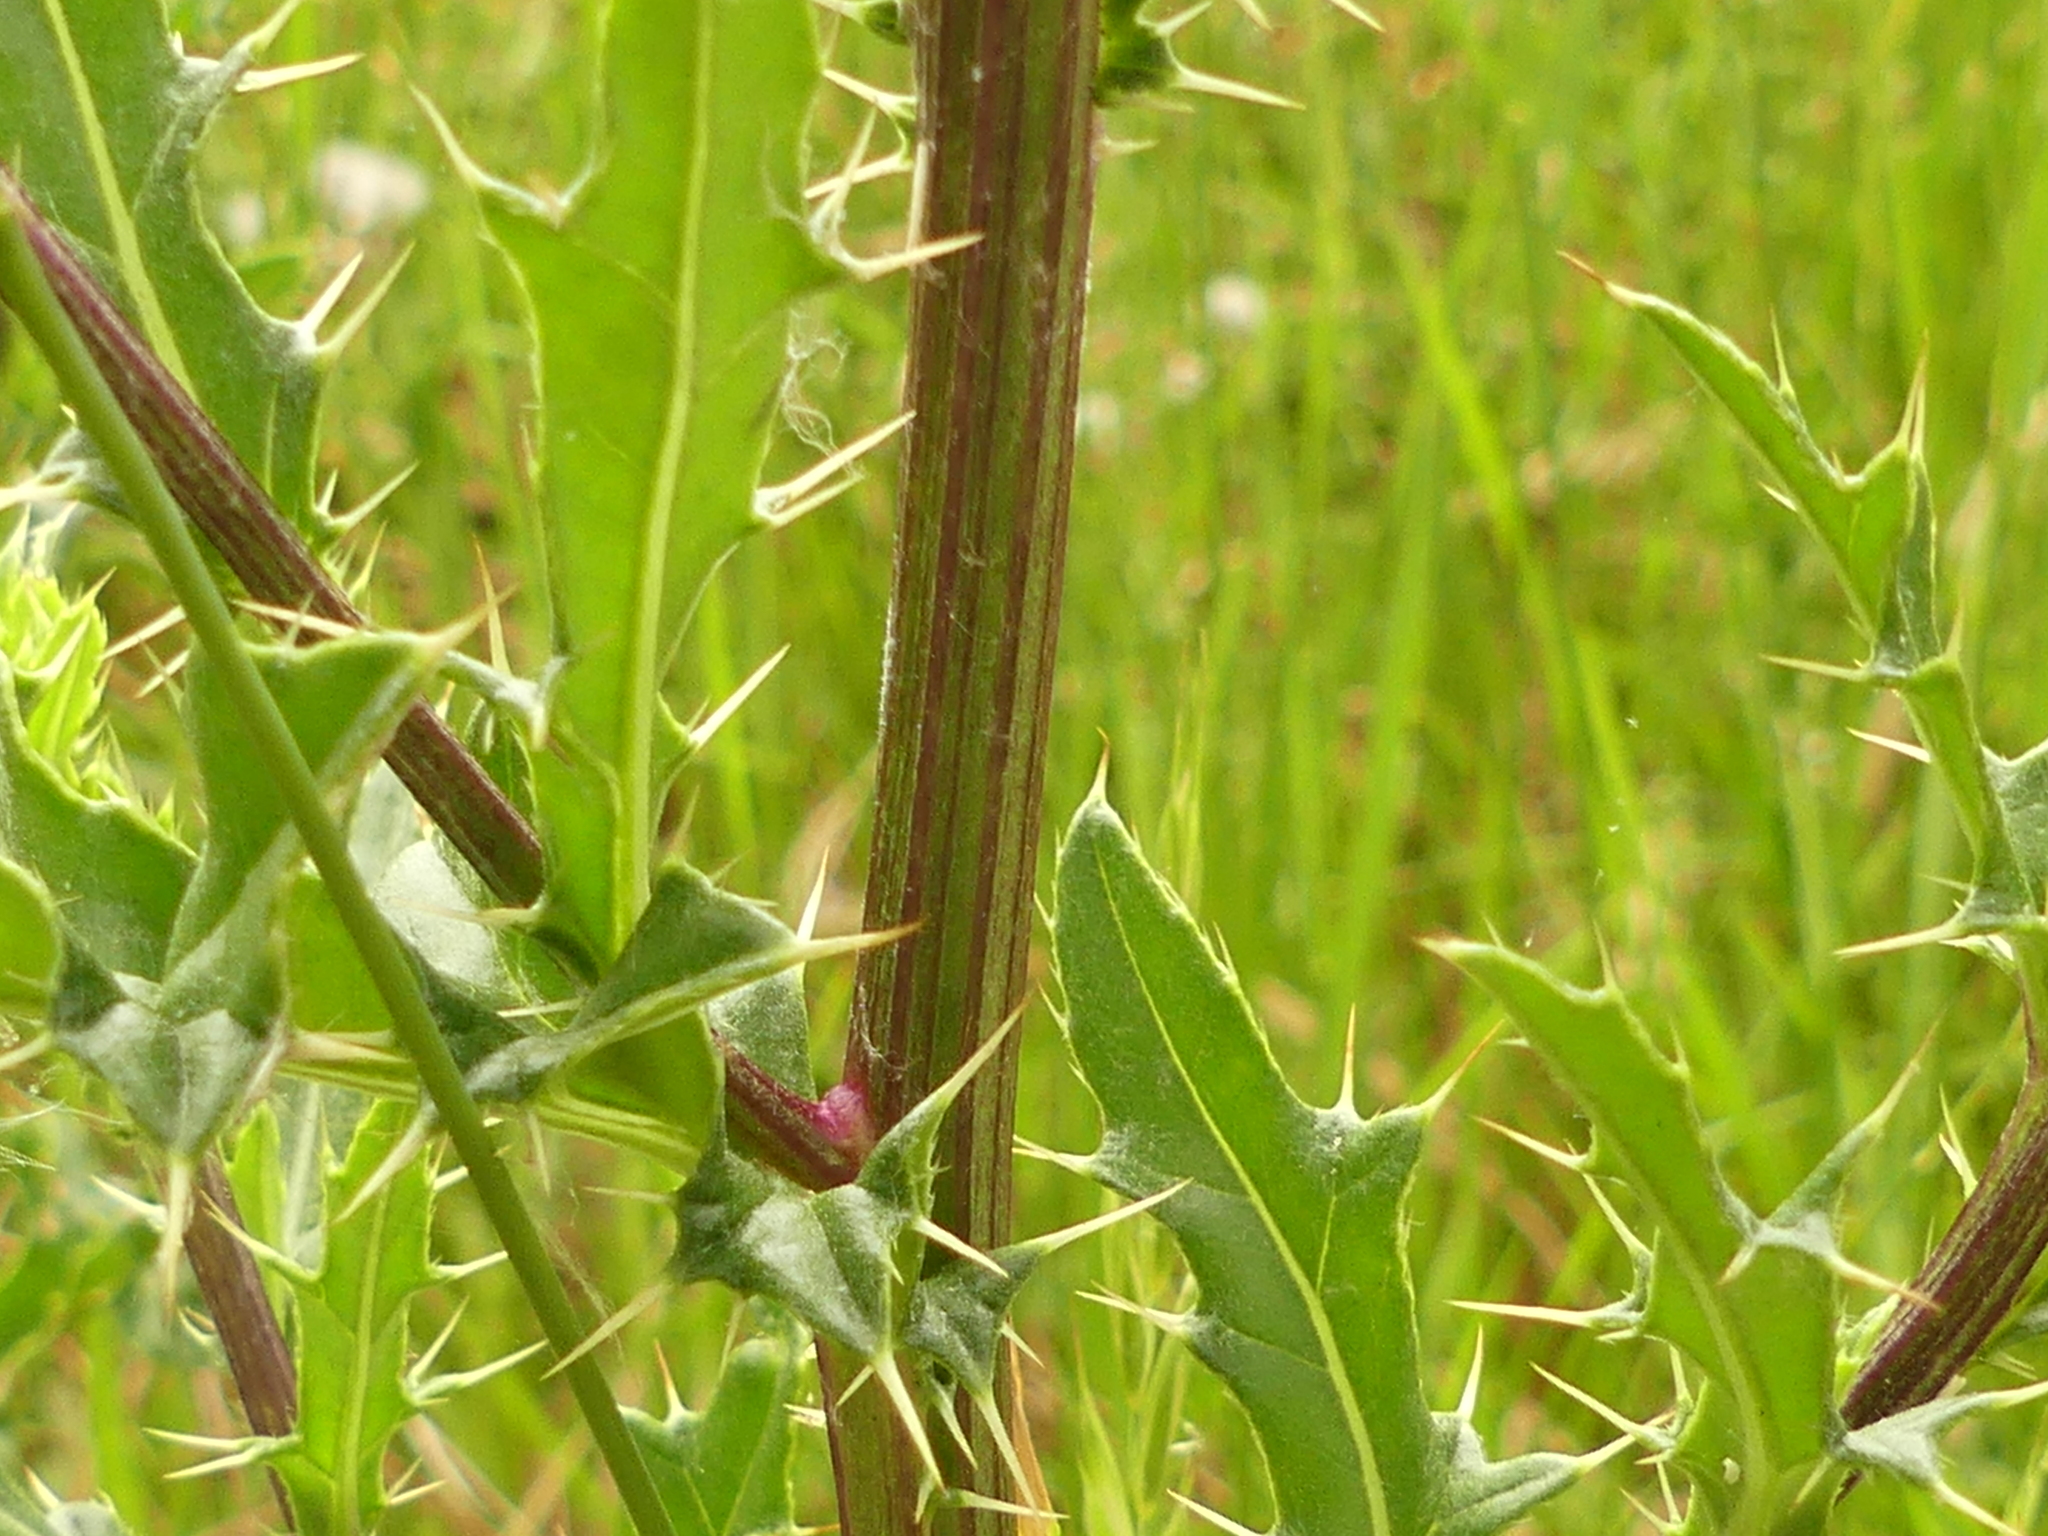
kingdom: Plantae
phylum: Tracheophyta
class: Magnoliopsida
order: Asterales
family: Asteraceae
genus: Cirsium
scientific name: Cirsium arvense
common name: Creeping thistle
